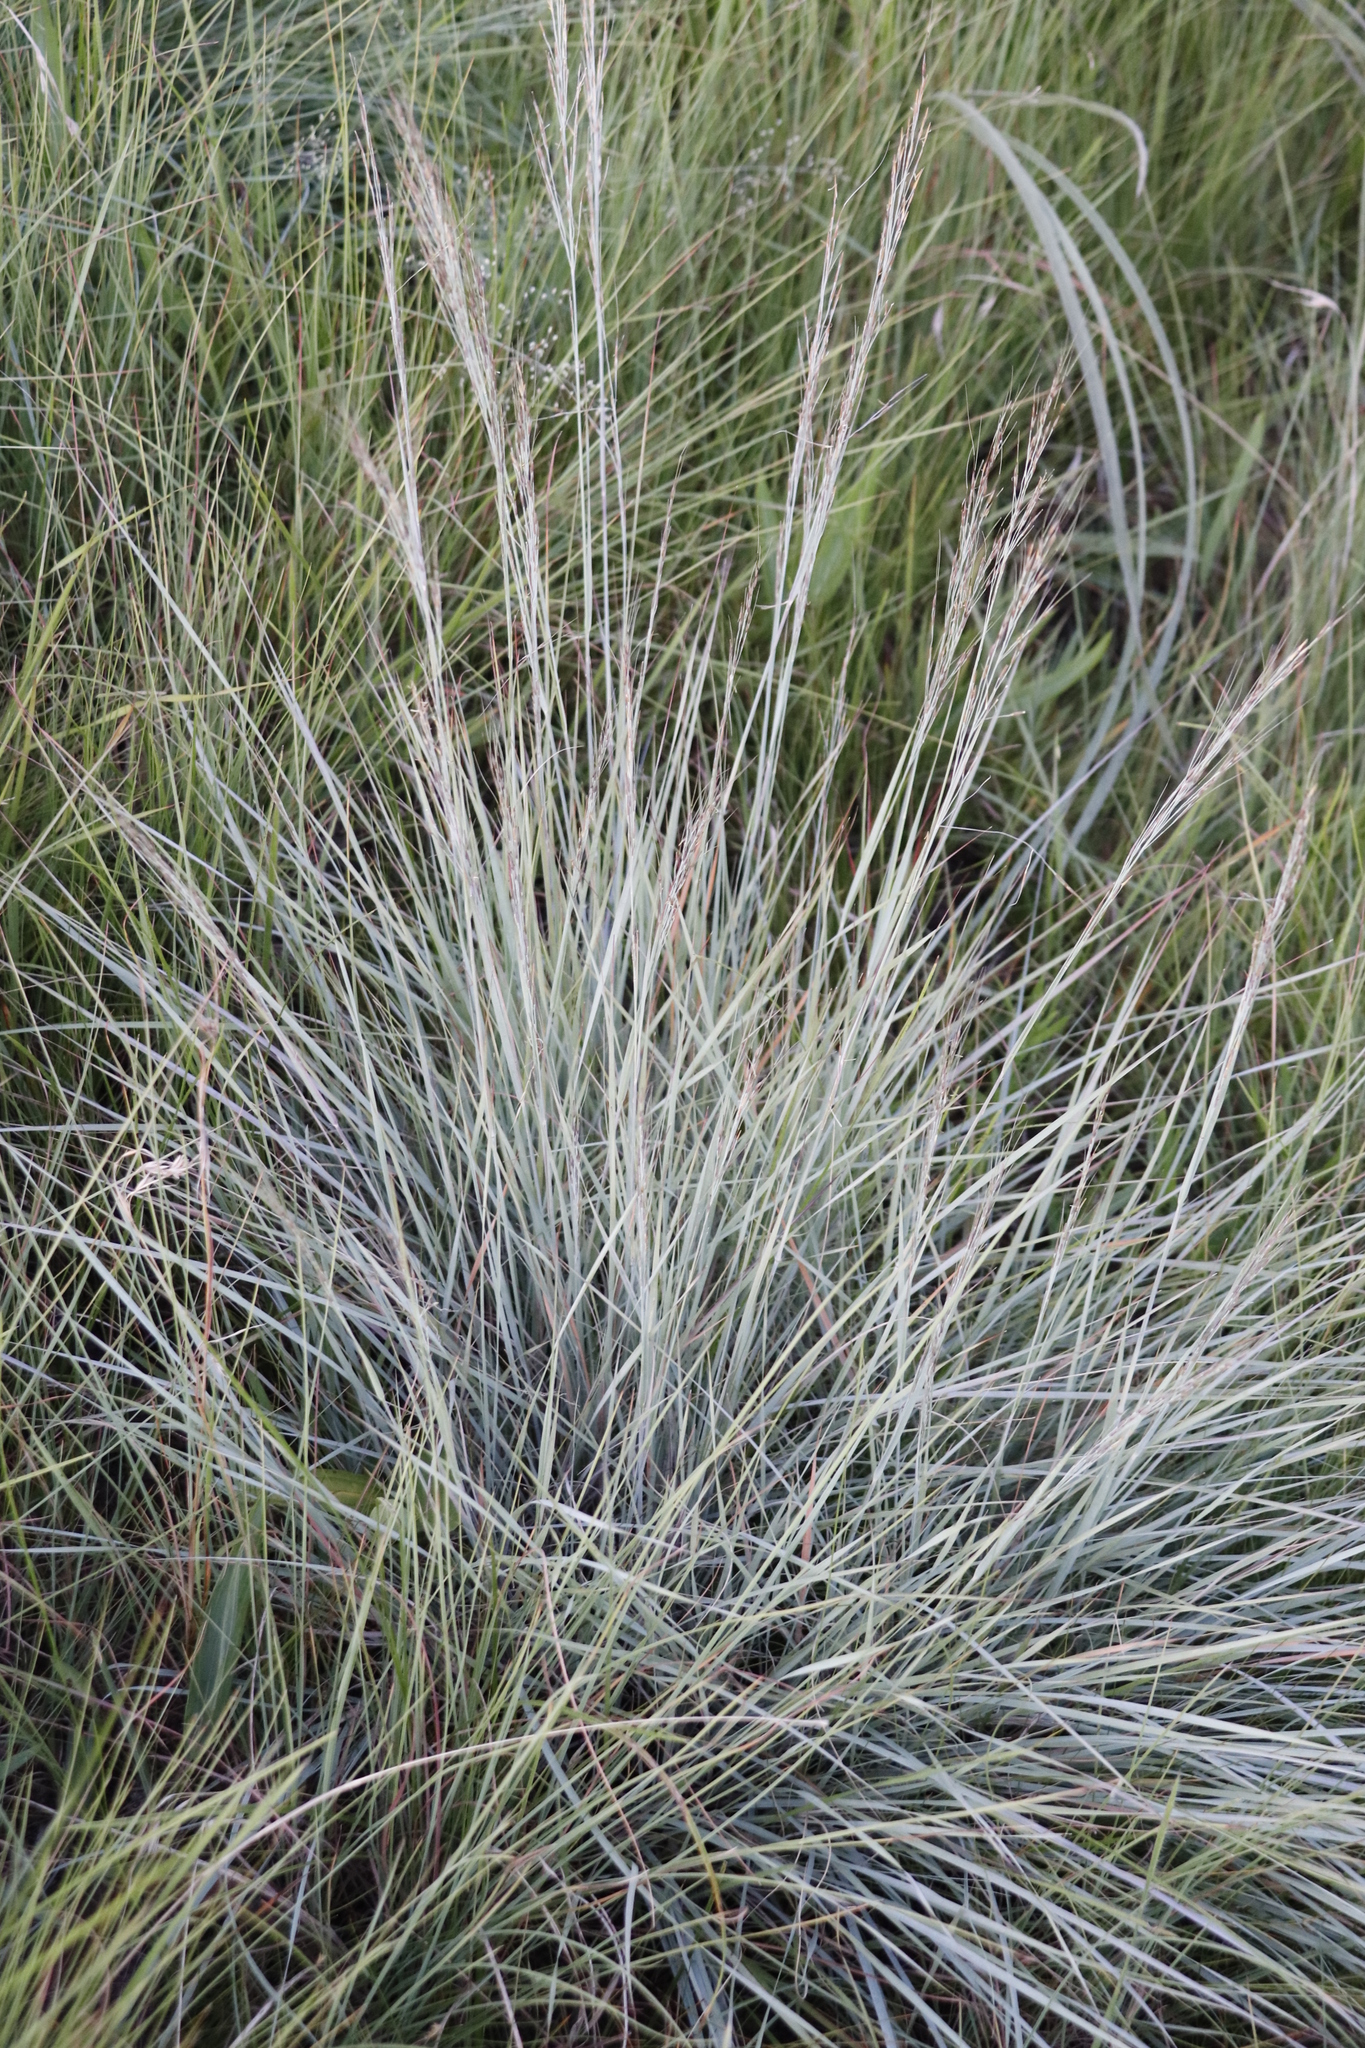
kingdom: Plantae
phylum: Tracheophyta
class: Liliopsida
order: Poales
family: Poaceae
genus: Loudetia
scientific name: Loudetia simplex
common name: Common russet grass
